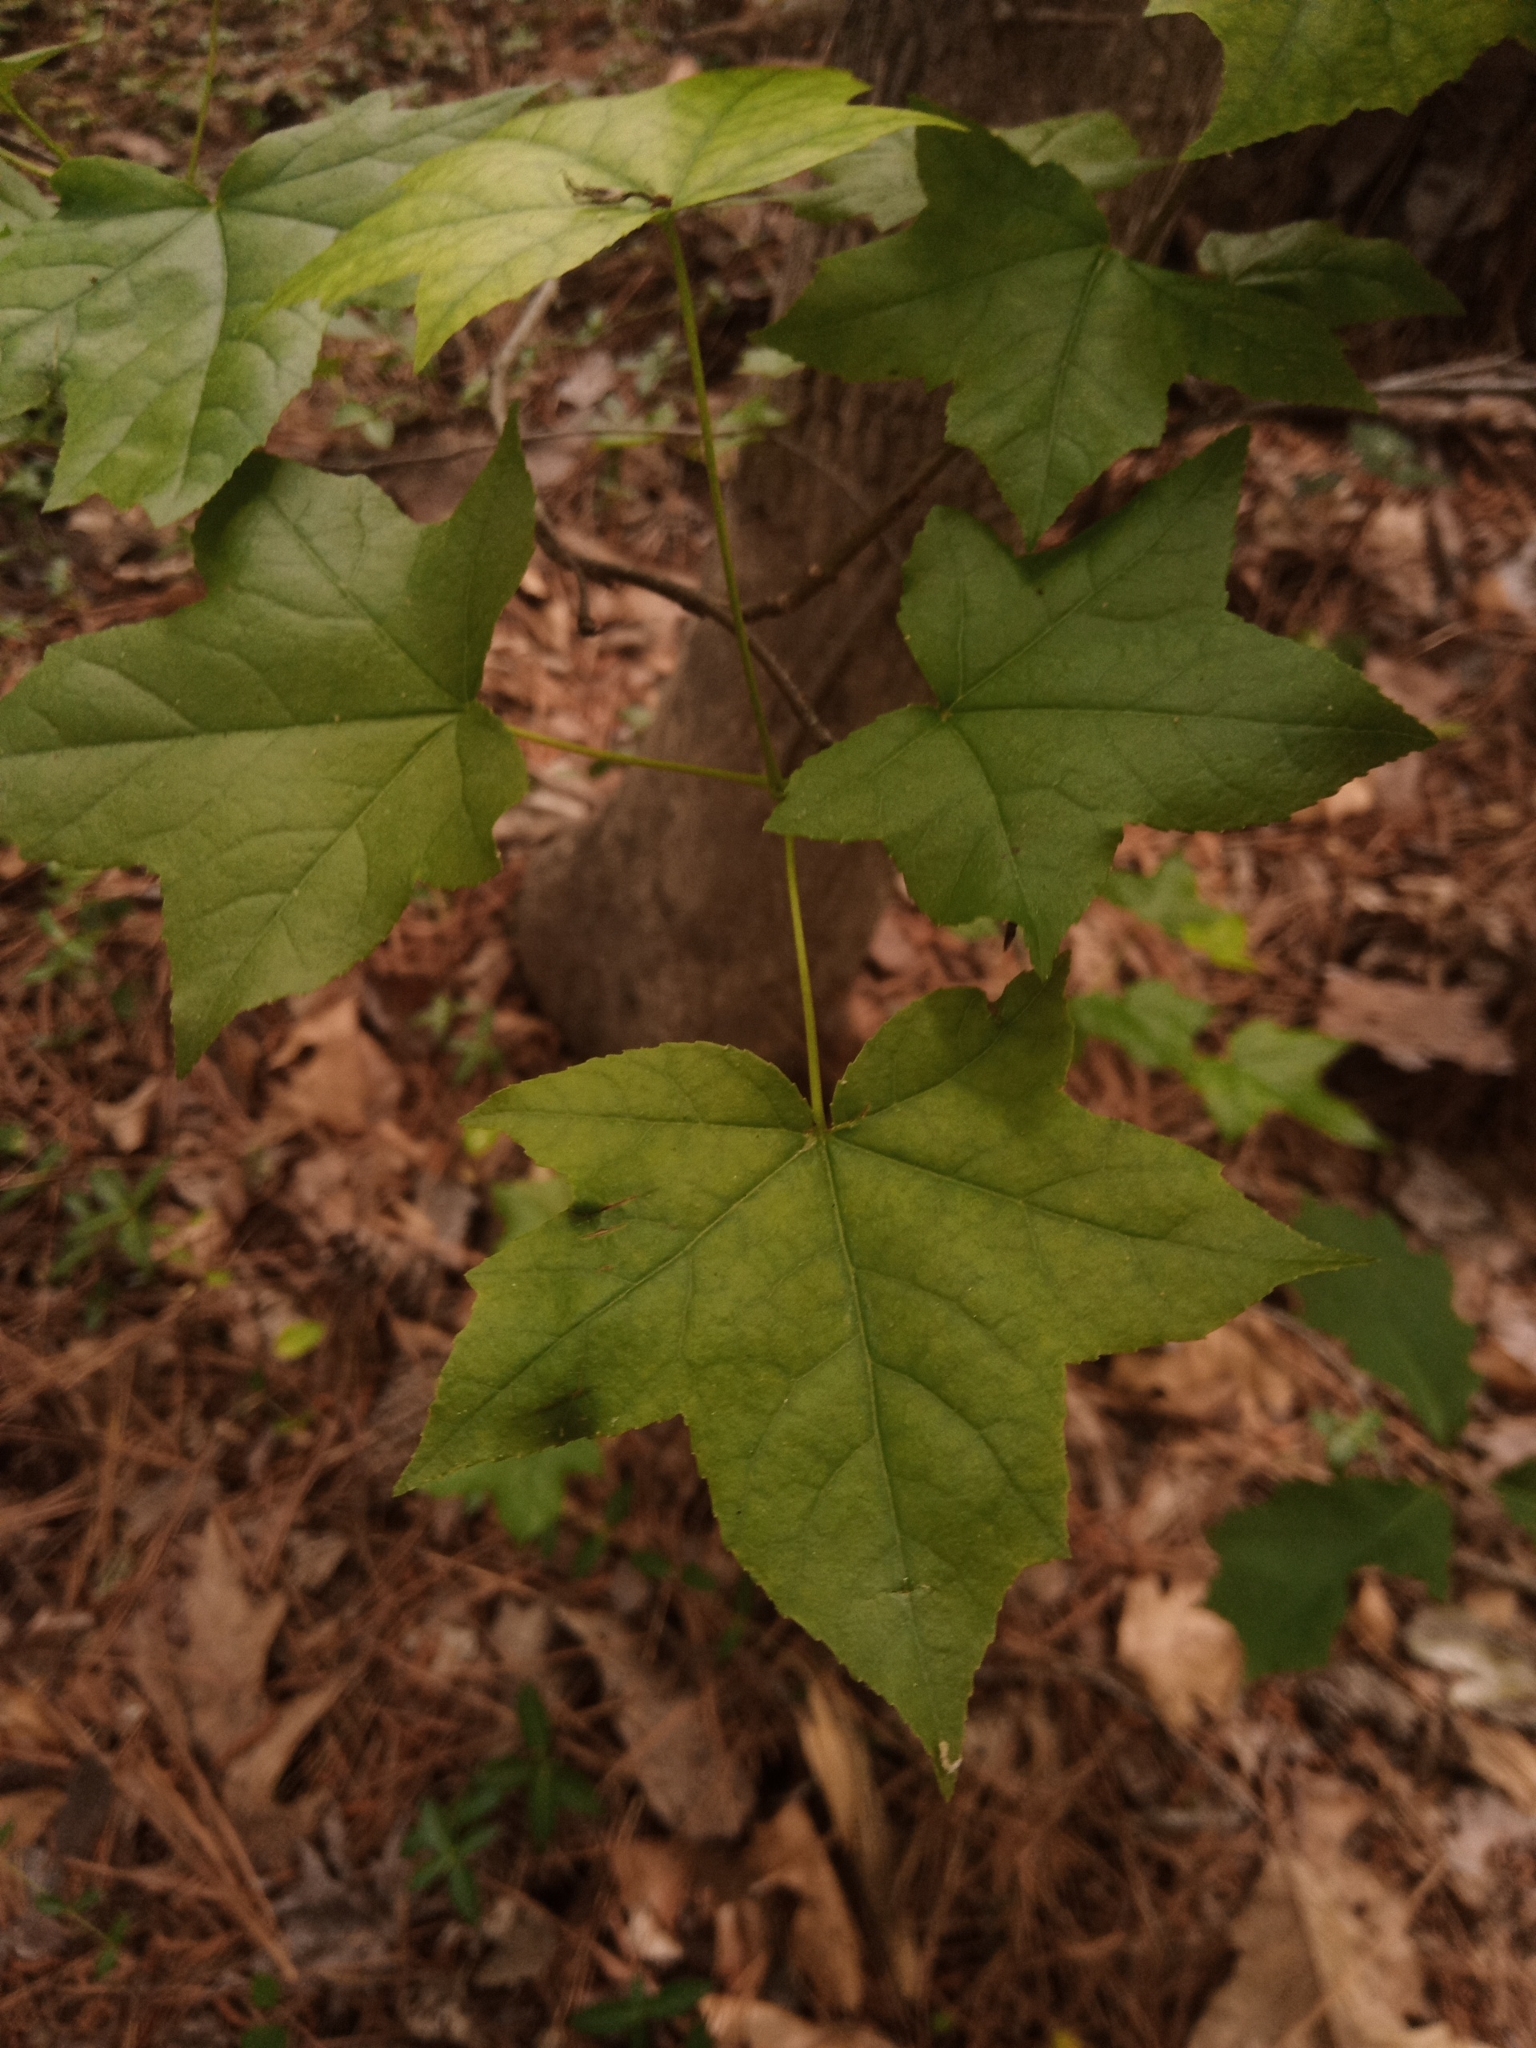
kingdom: Plantae
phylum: Tracheophyta
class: Magnoliopsida
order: Saxifragales
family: Altingiaceae
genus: Liquidambar
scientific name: Liquidambar styraciflua
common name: Sweet gum
